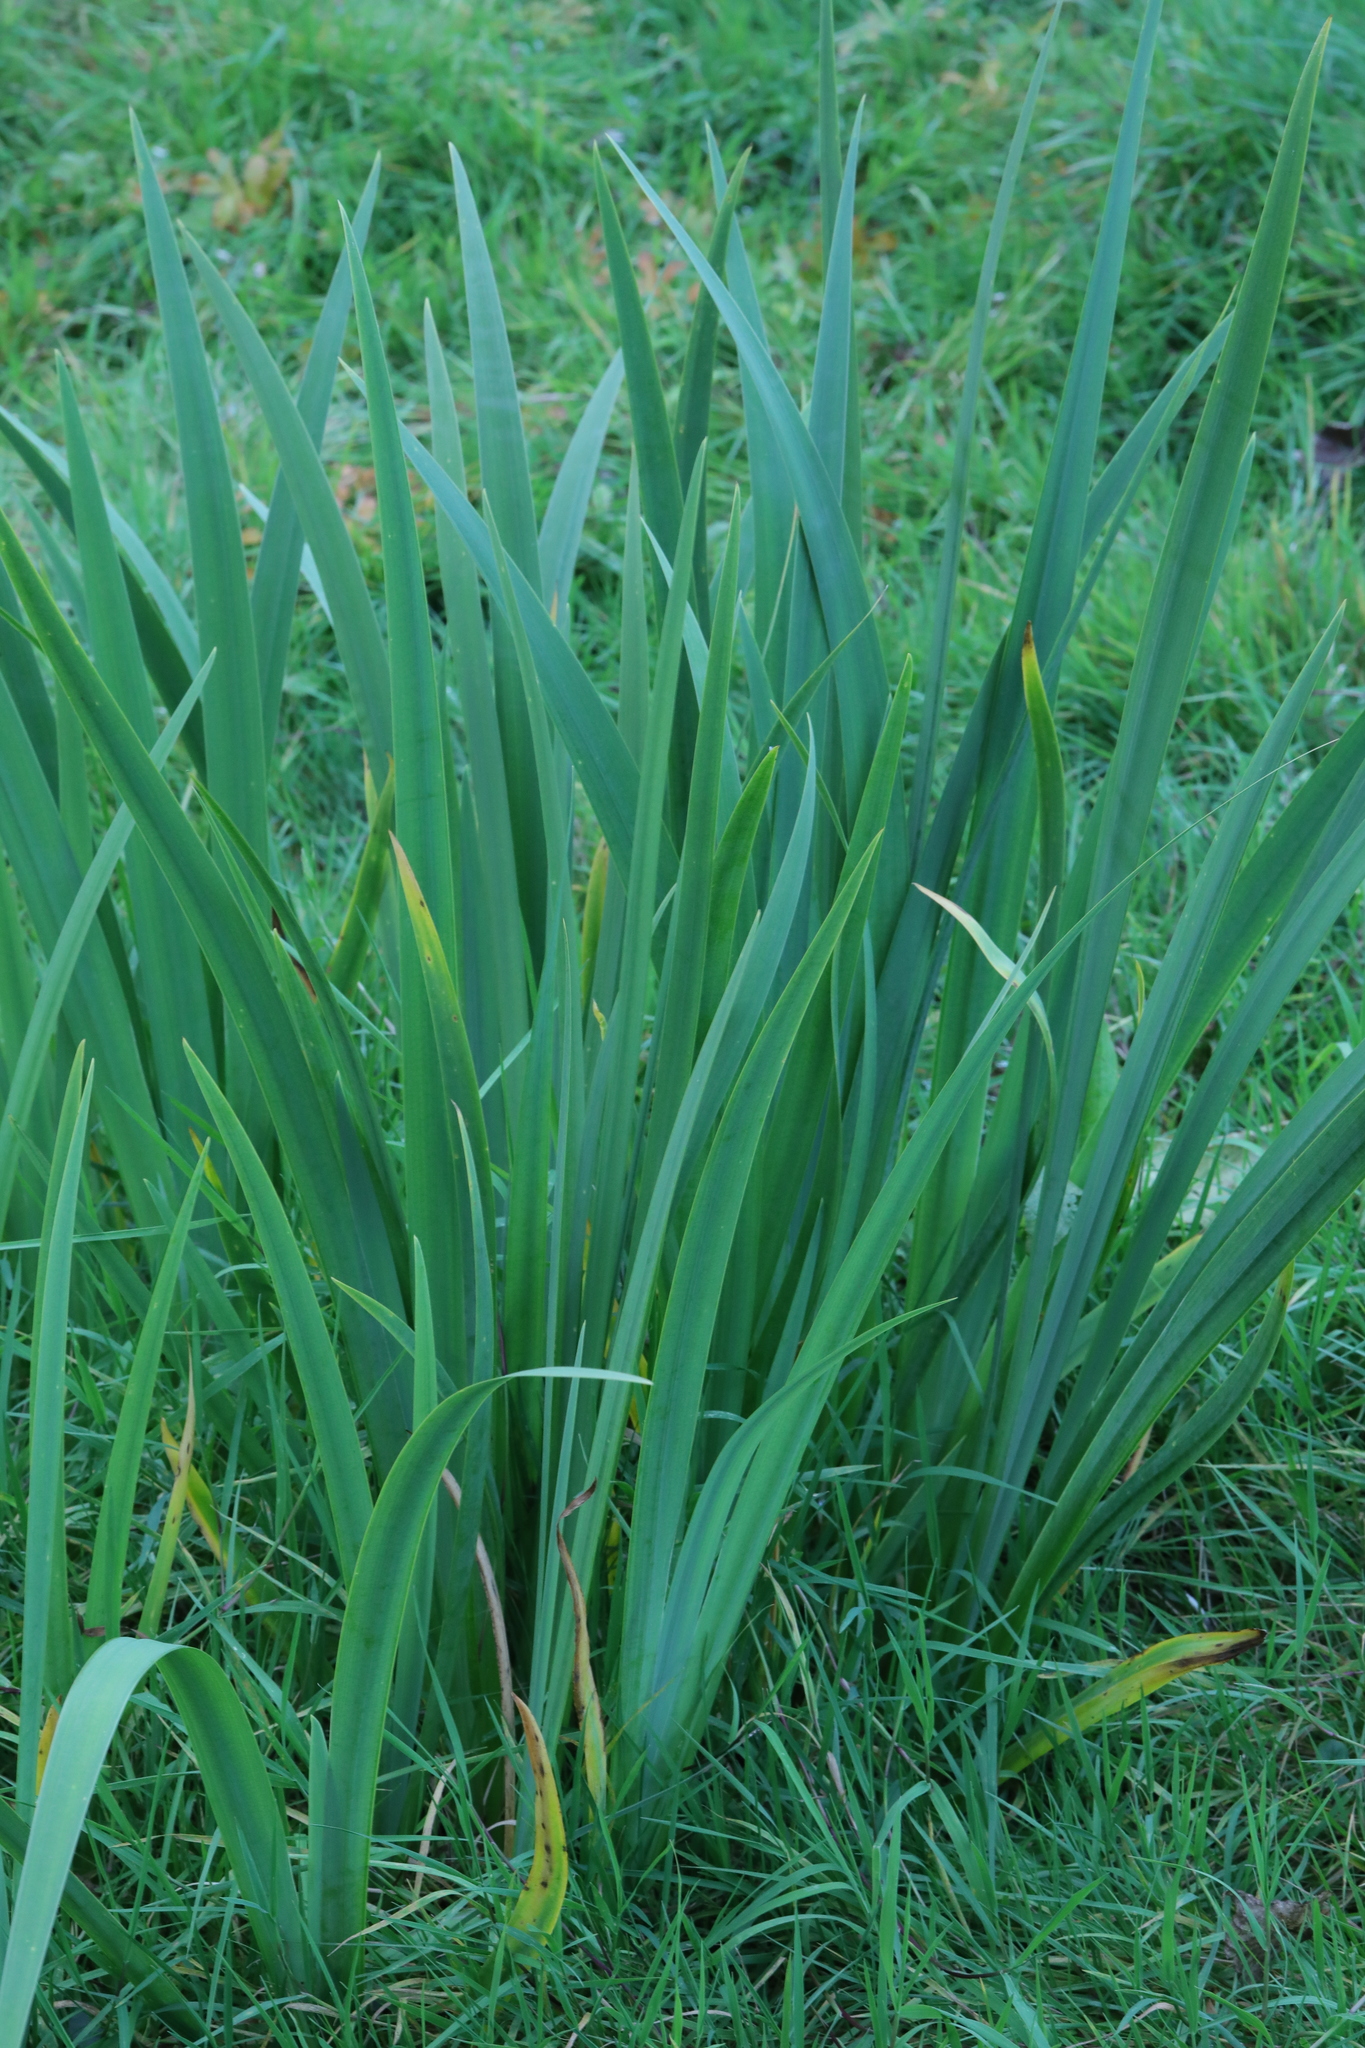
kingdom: Plantae
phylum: Tracheophyta
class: Liliopsida
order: Asparagales
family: Iridaceae
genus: Iris
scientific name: Iris pseudacorus
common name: Yellow flag
